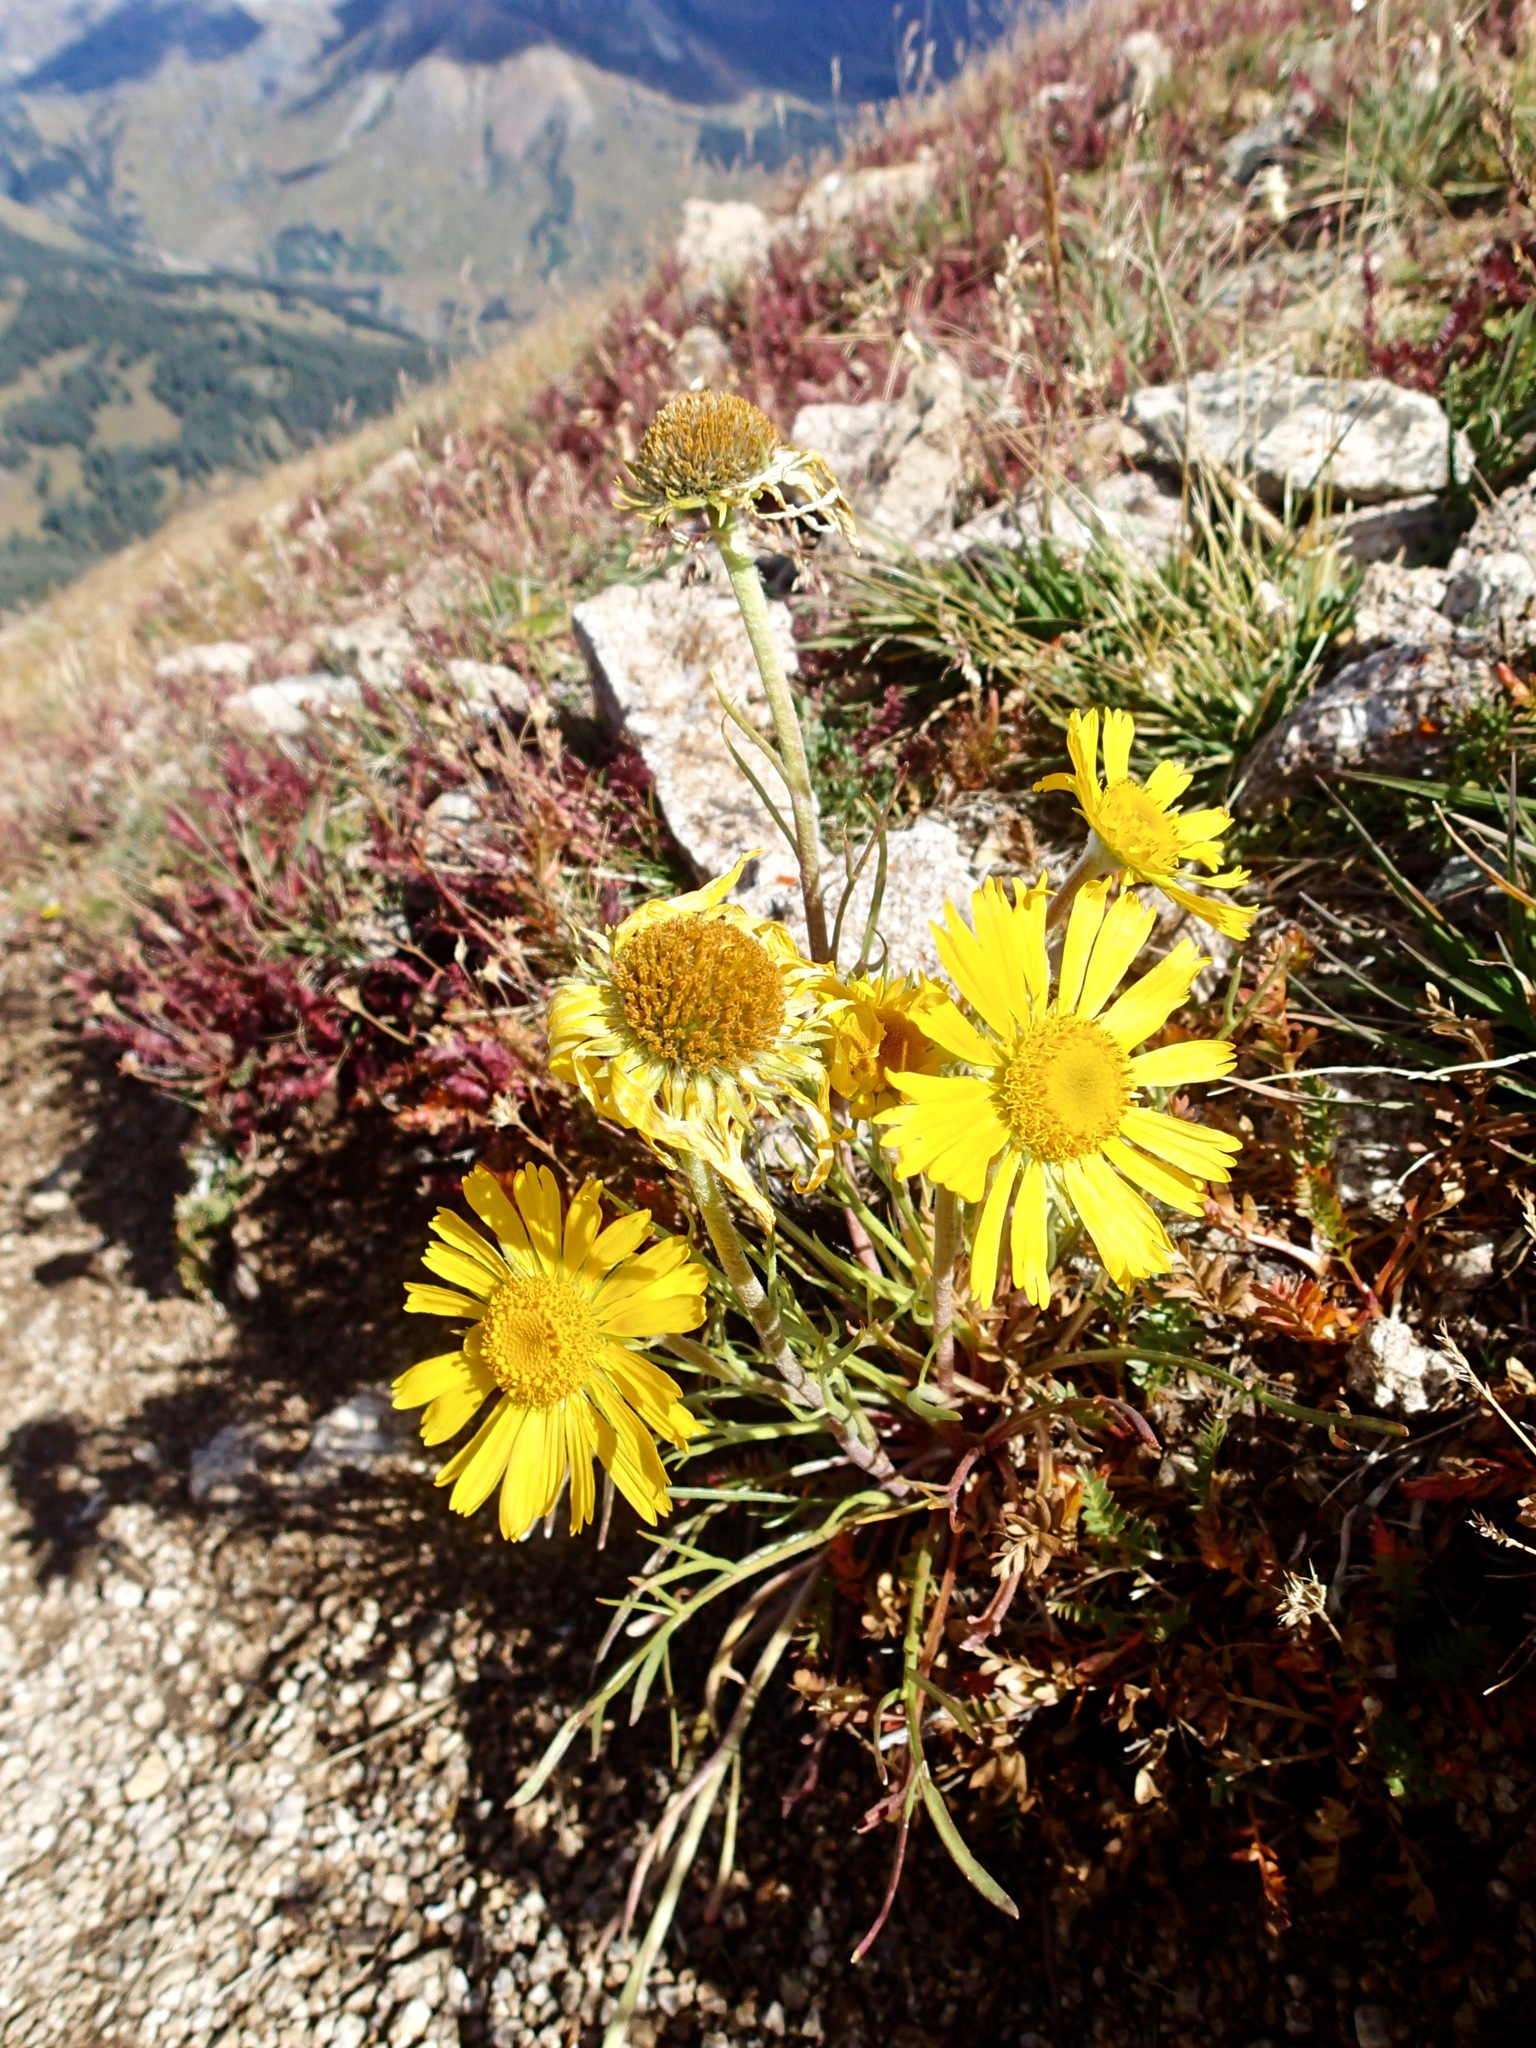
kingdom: Plantae
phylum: Tracheophyta
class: Magnoliopsida
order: Asterales
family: Asteraceae
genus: Hymenoxys
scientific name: Hymenoxys grandiflora
